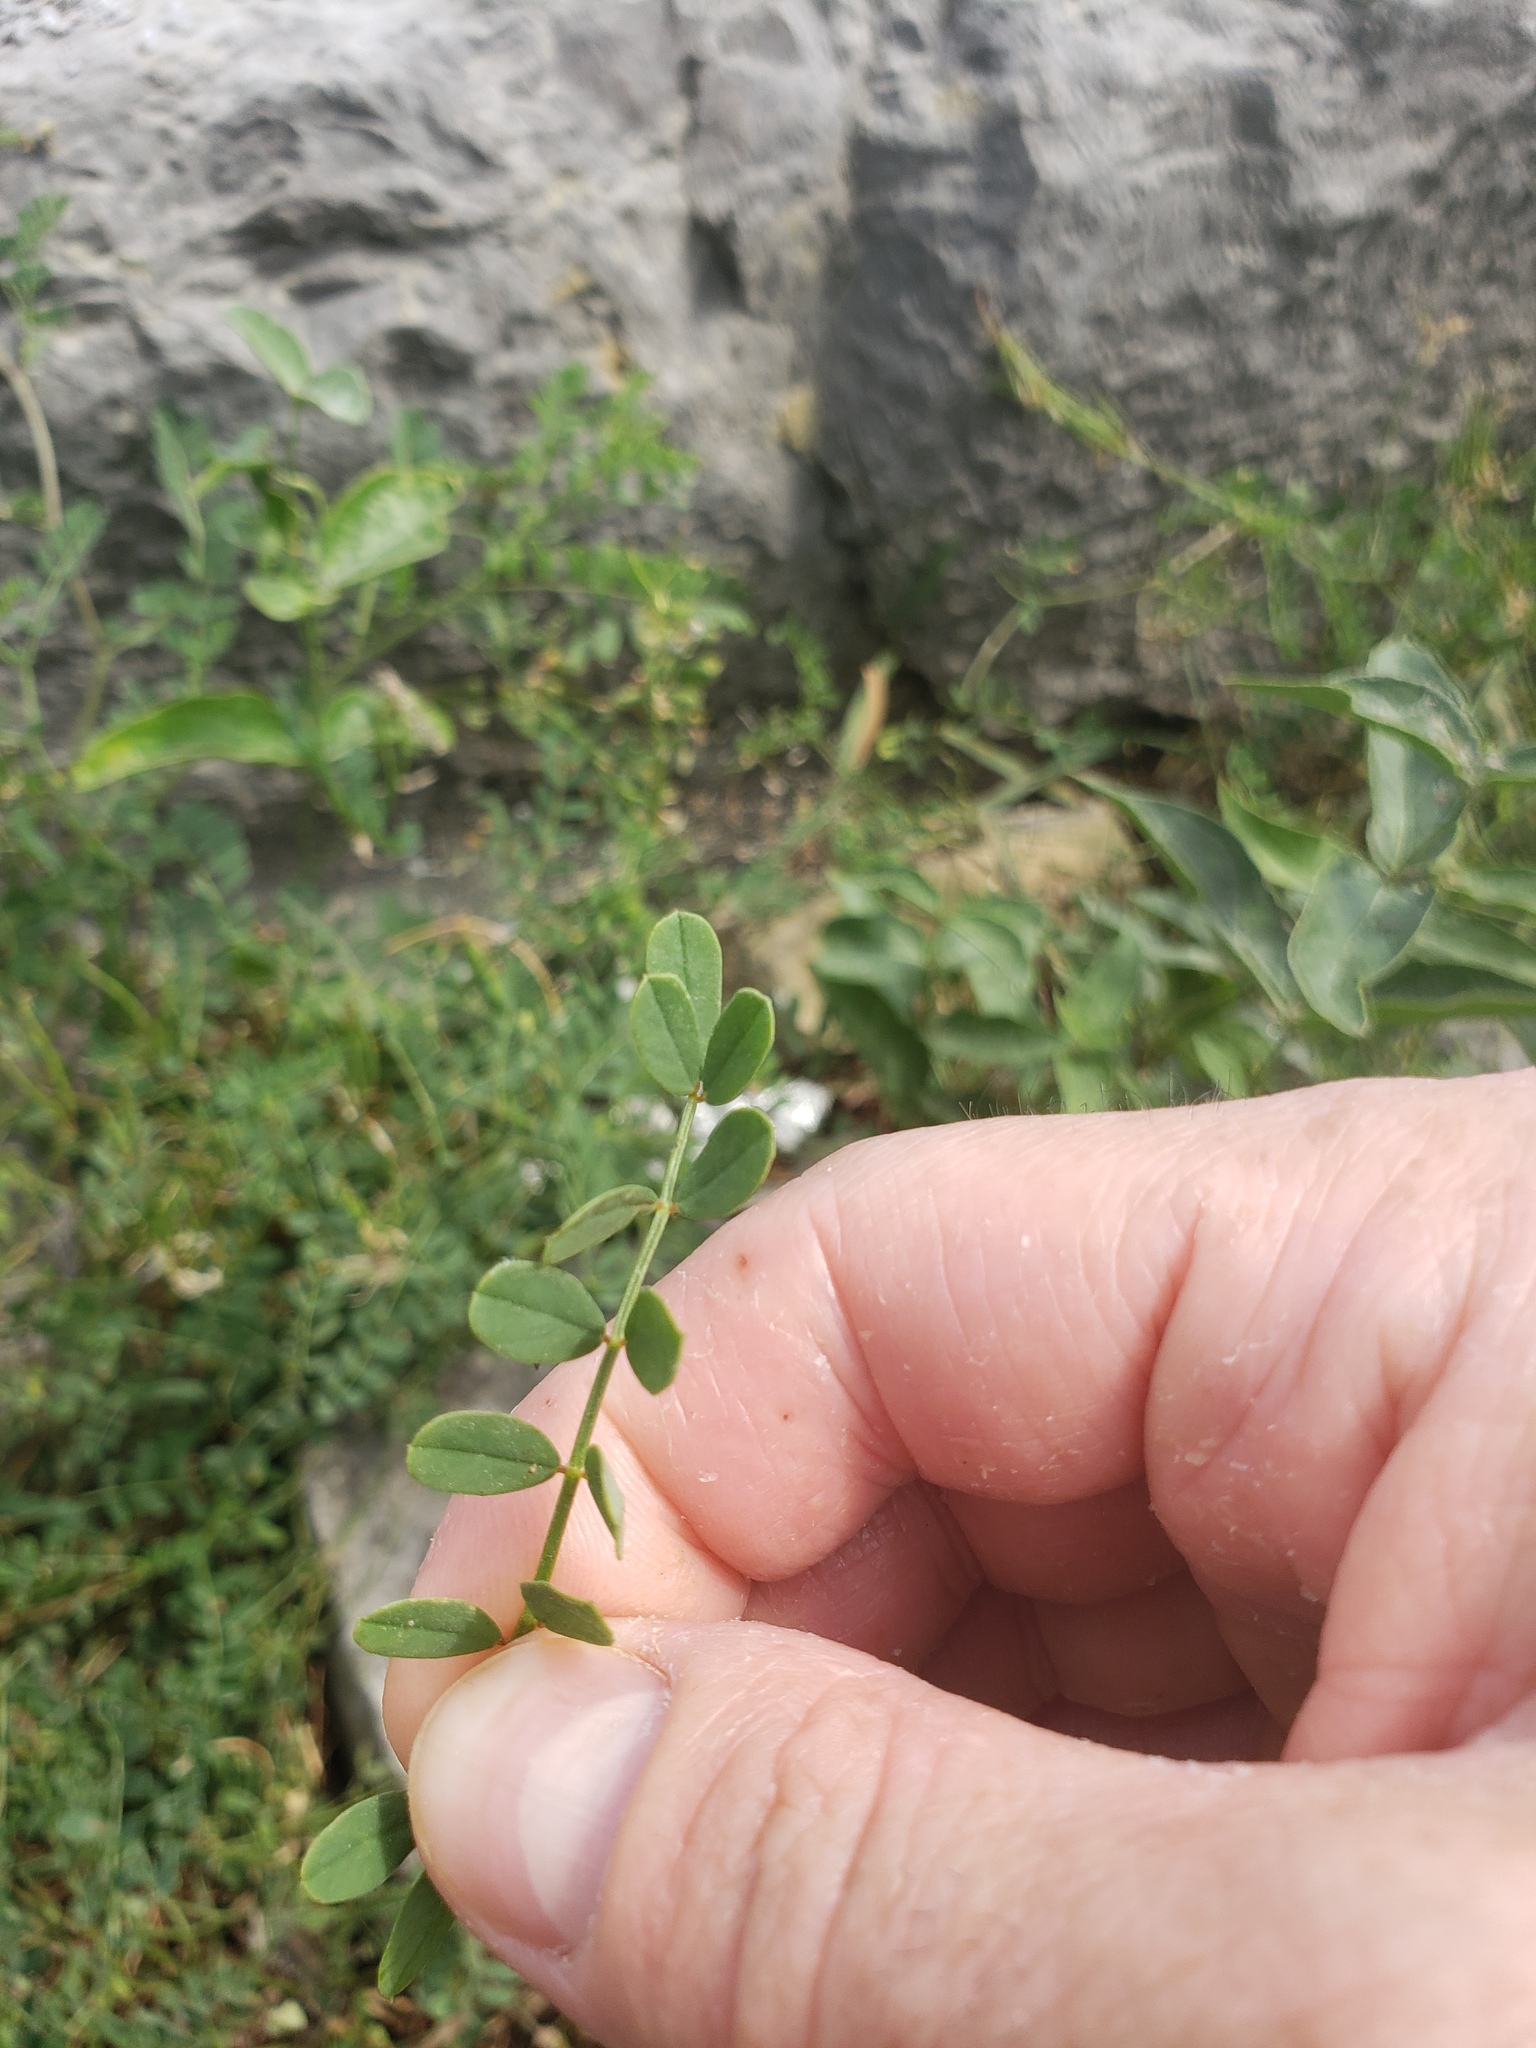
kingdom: Plantae
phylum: Tracheophyta
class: Magnoliopsida
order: Fabales
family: Fabaceae
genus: Coronilla
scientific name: Coronilla varia
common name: Crownvetch
